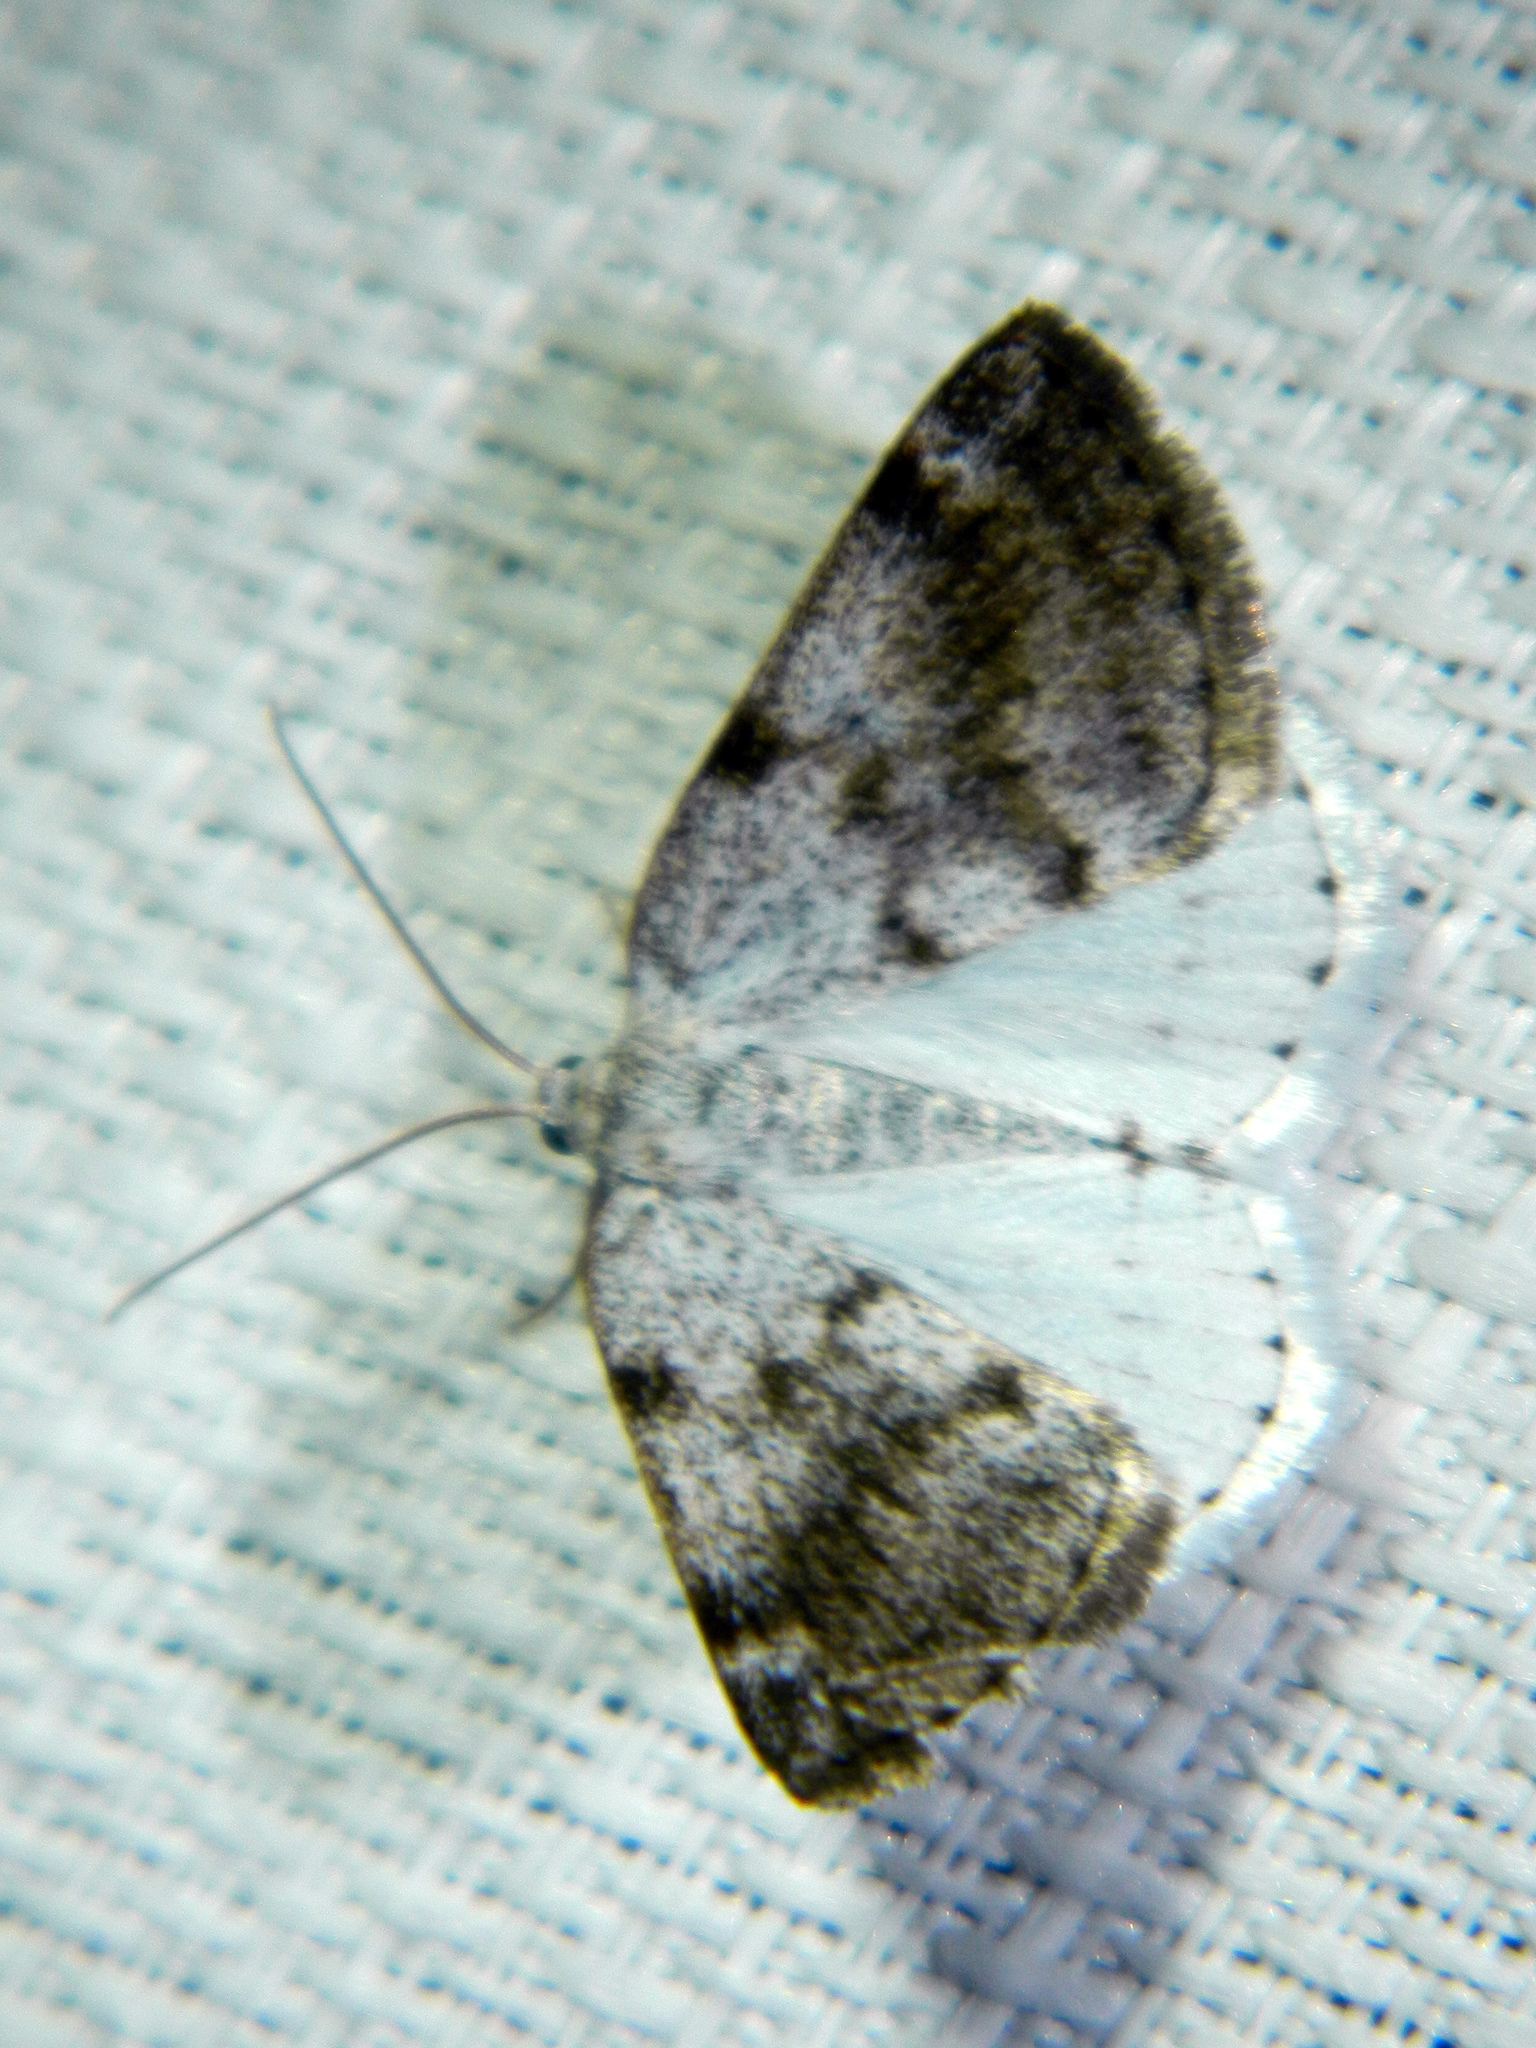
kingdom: Animalia
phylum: Arthropoda
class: Insecta
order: Lepidoptera
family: Geometridae
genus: Lomographa
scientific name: Lomographa semiclarata
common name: Bluish spring moth
